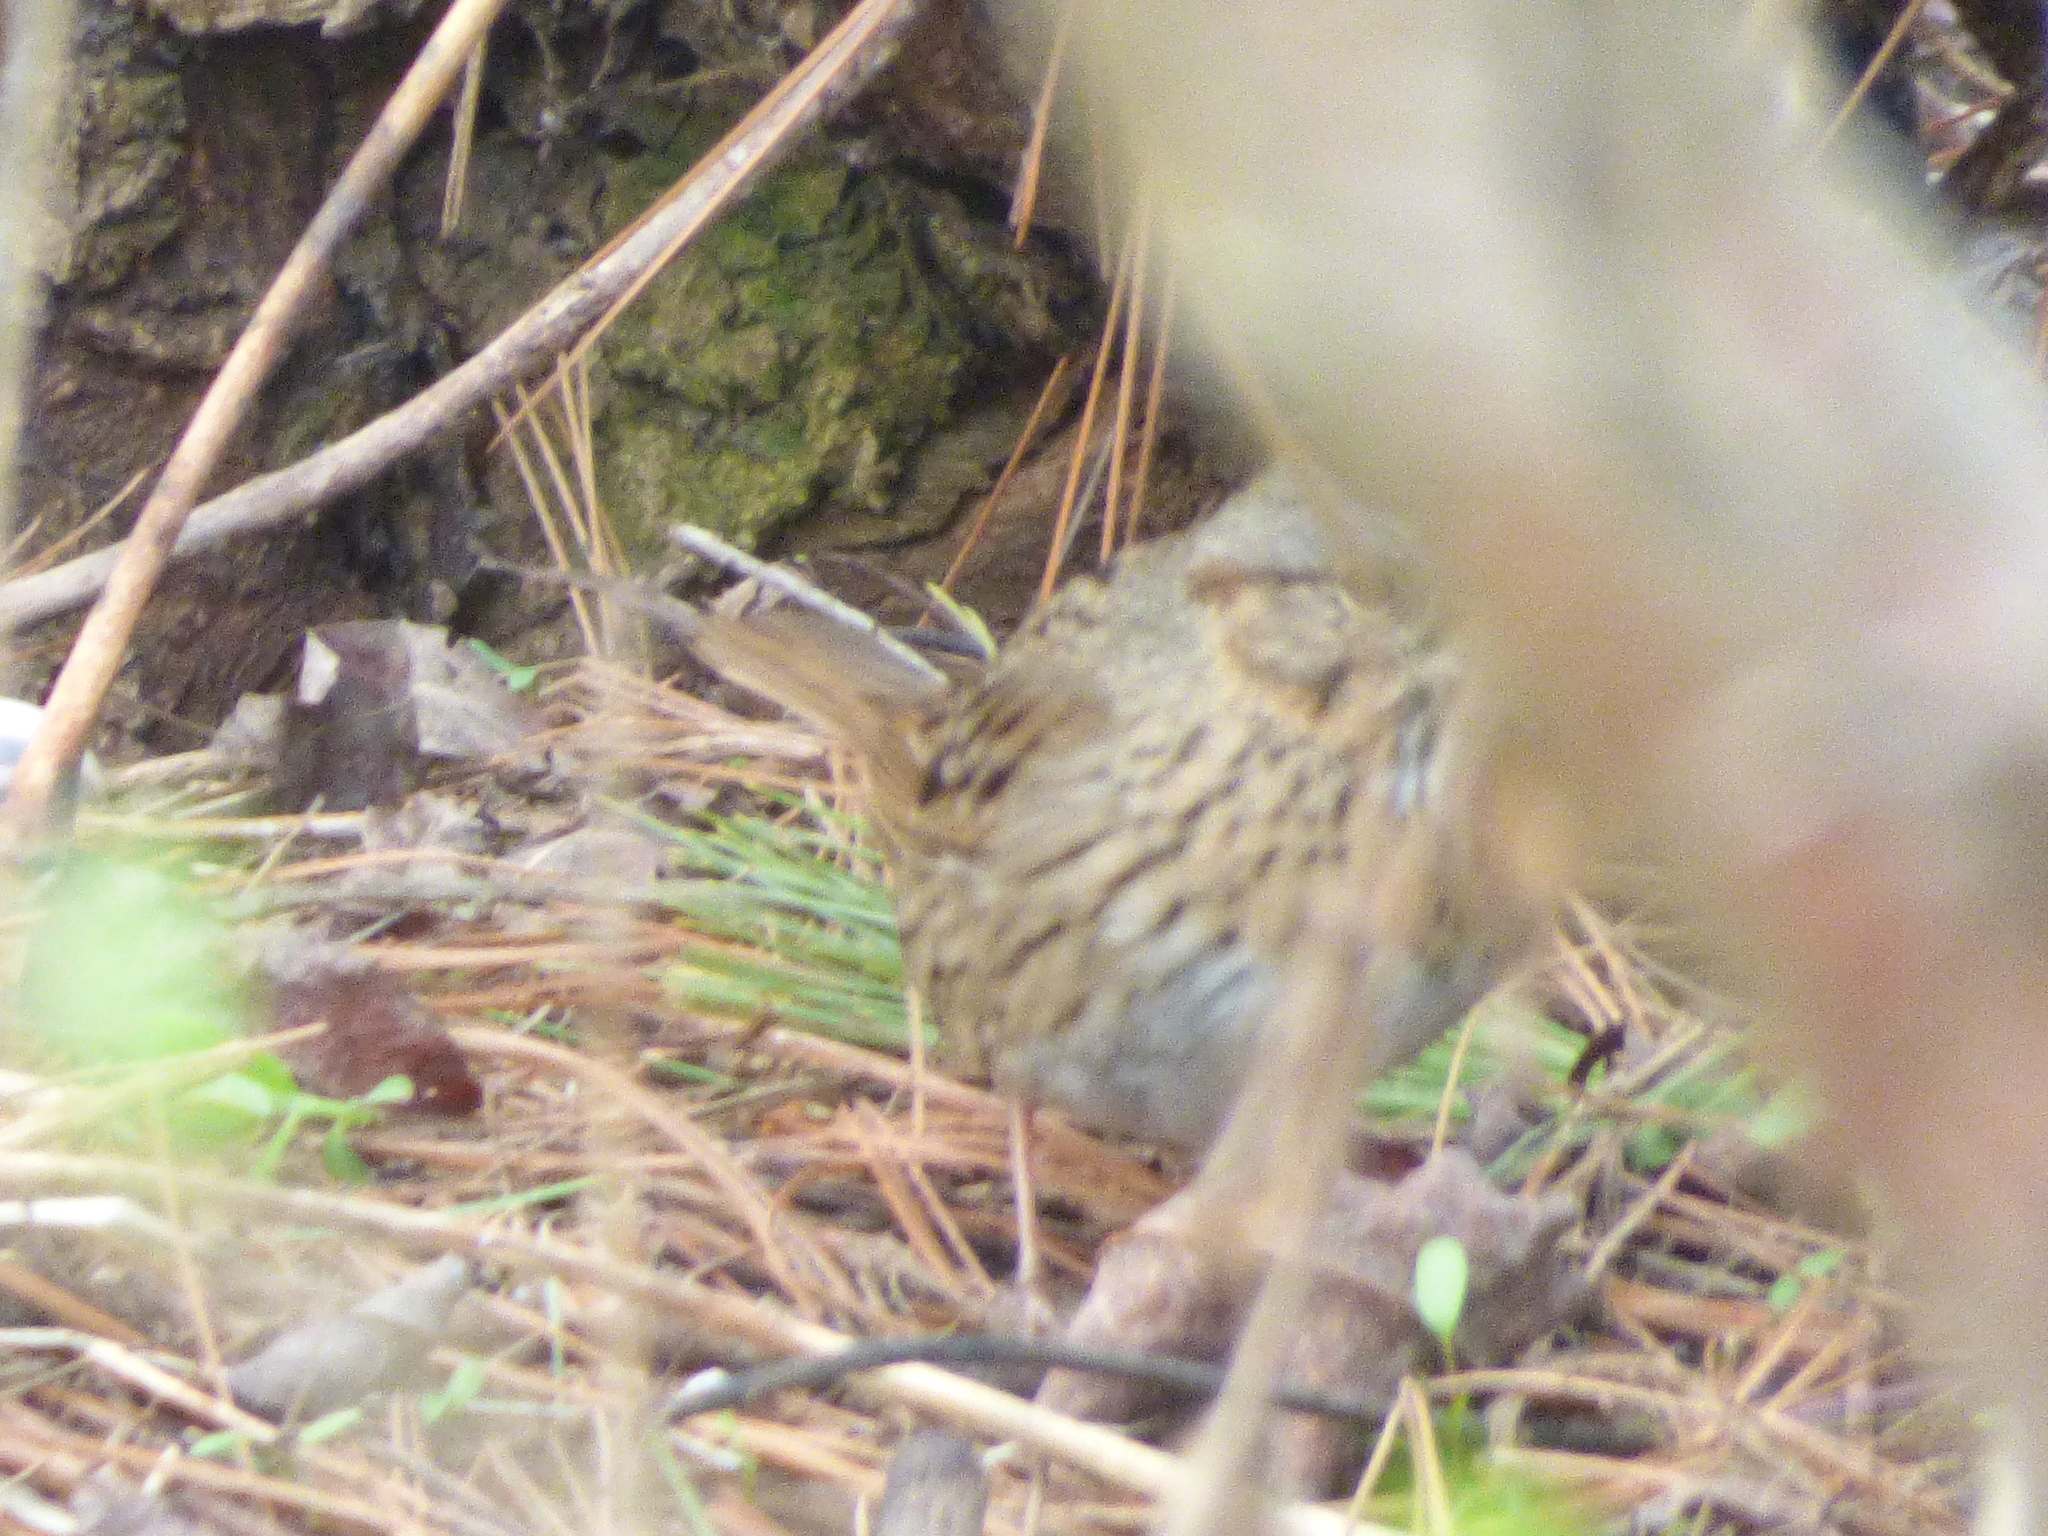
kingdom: Animalia
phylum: Chordata
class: Aves
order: Passeriformes
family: Passerellidae
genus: Melospiza
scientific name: Melospiza lincolnii
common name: Lincoln's sparrow
